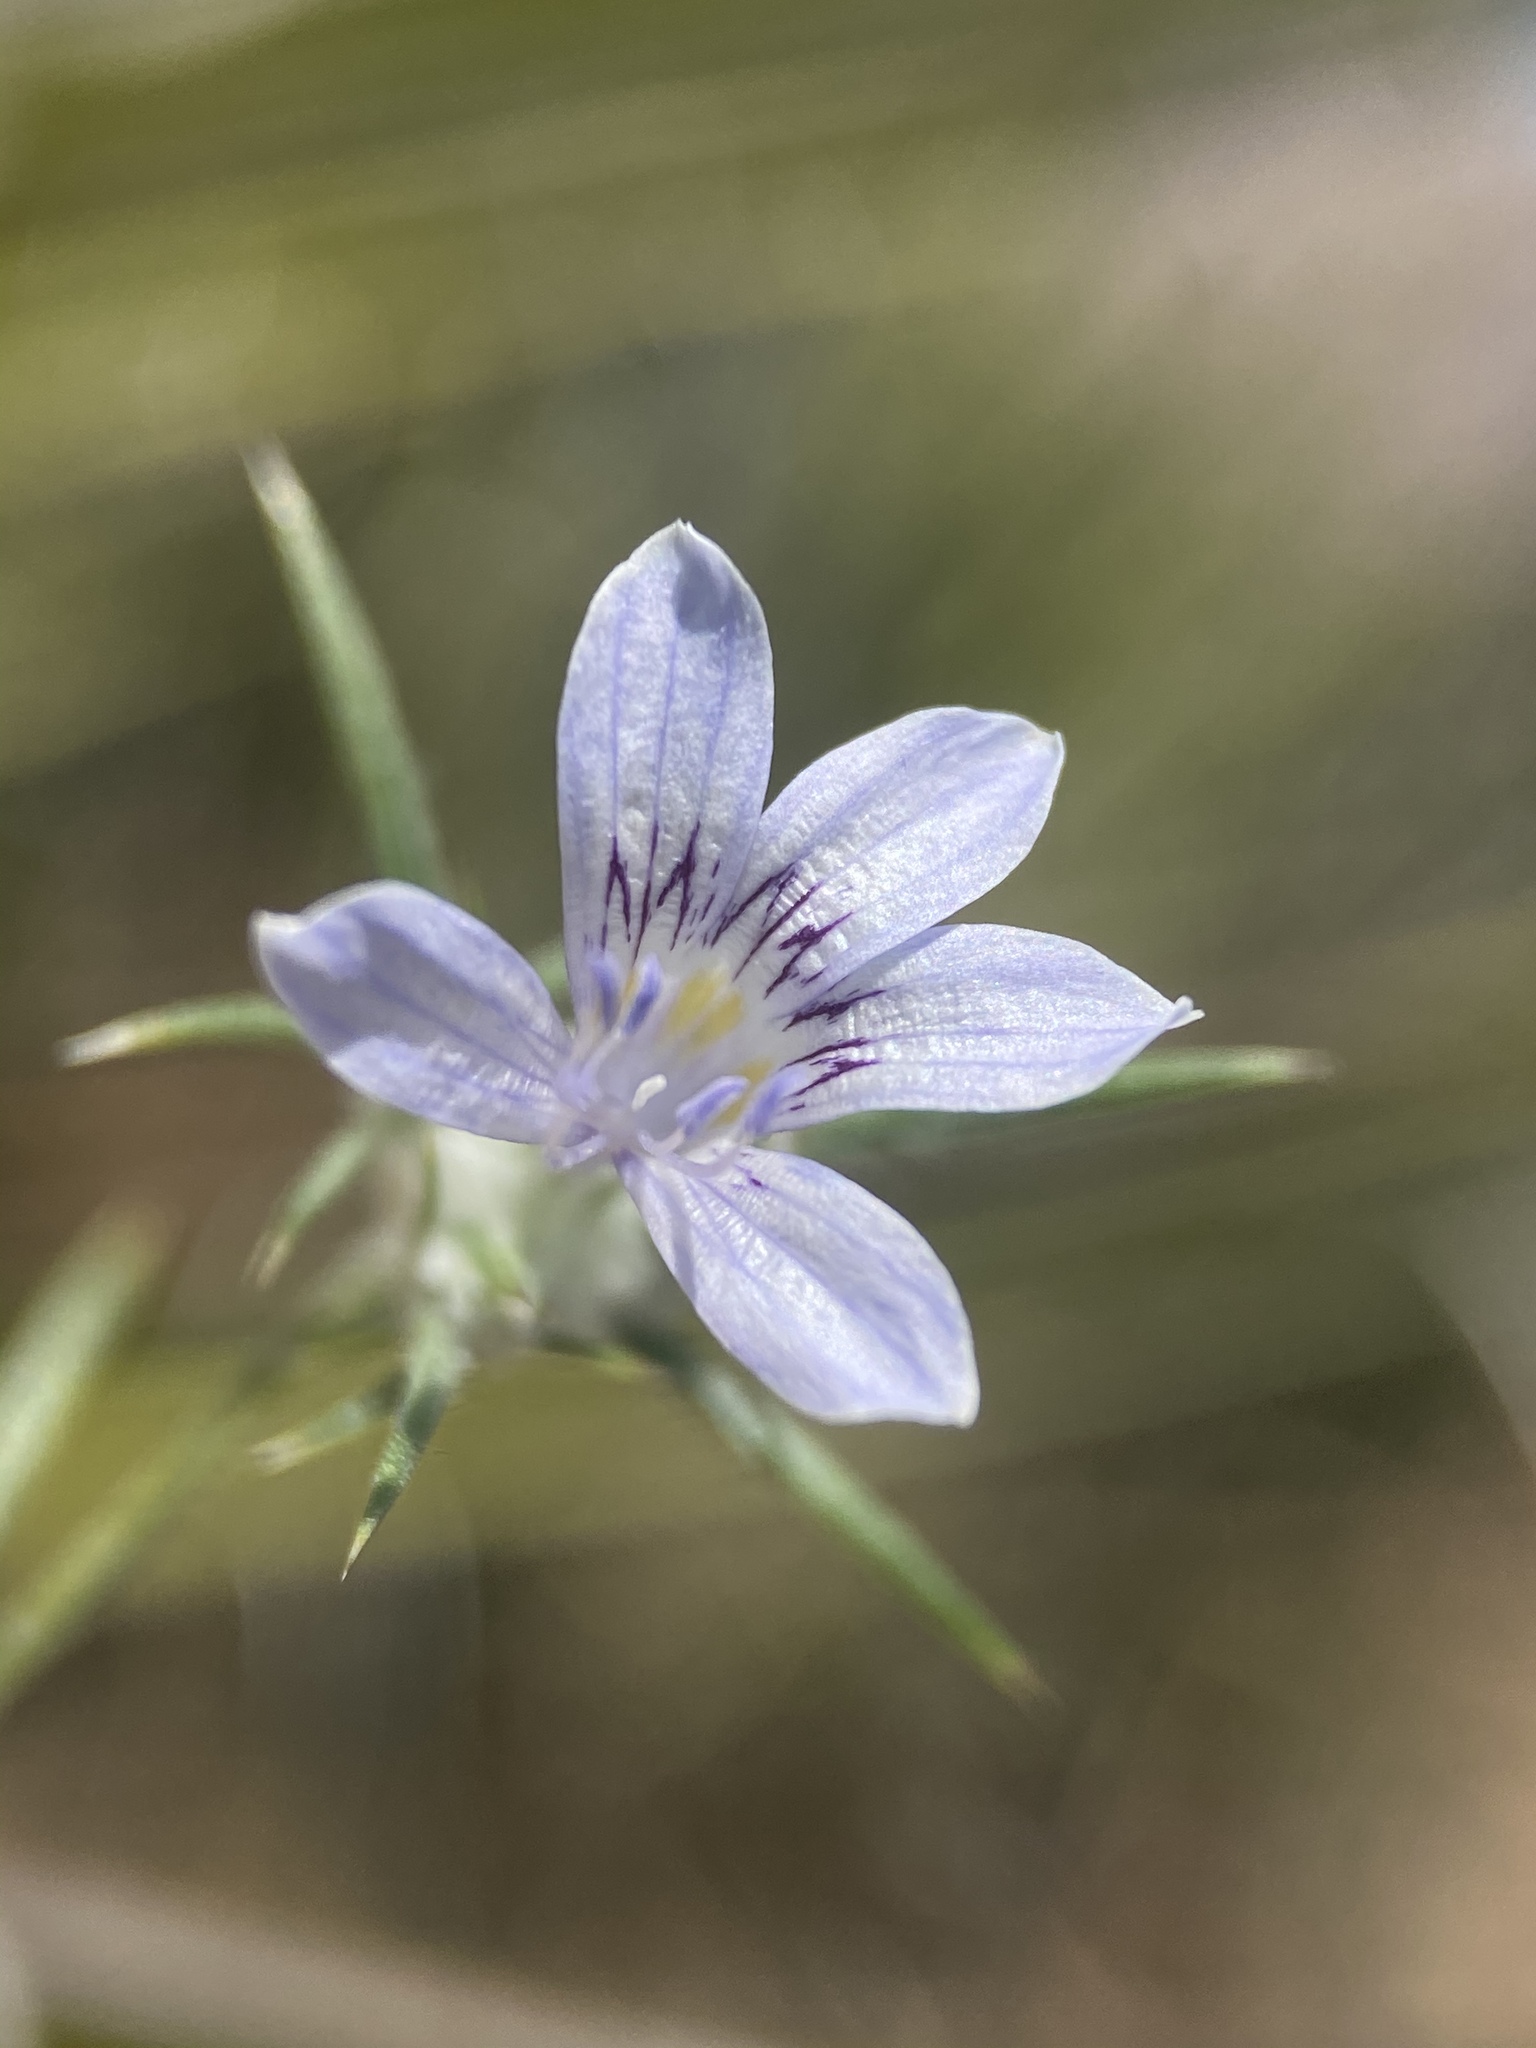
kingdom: Plantae
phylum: Tracheophyta
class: Magnoliopsida
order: Ericales
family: Polemoniaceae
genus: Eriastrum
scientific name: Eriastrum eremicum
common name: Desert eriastrum
